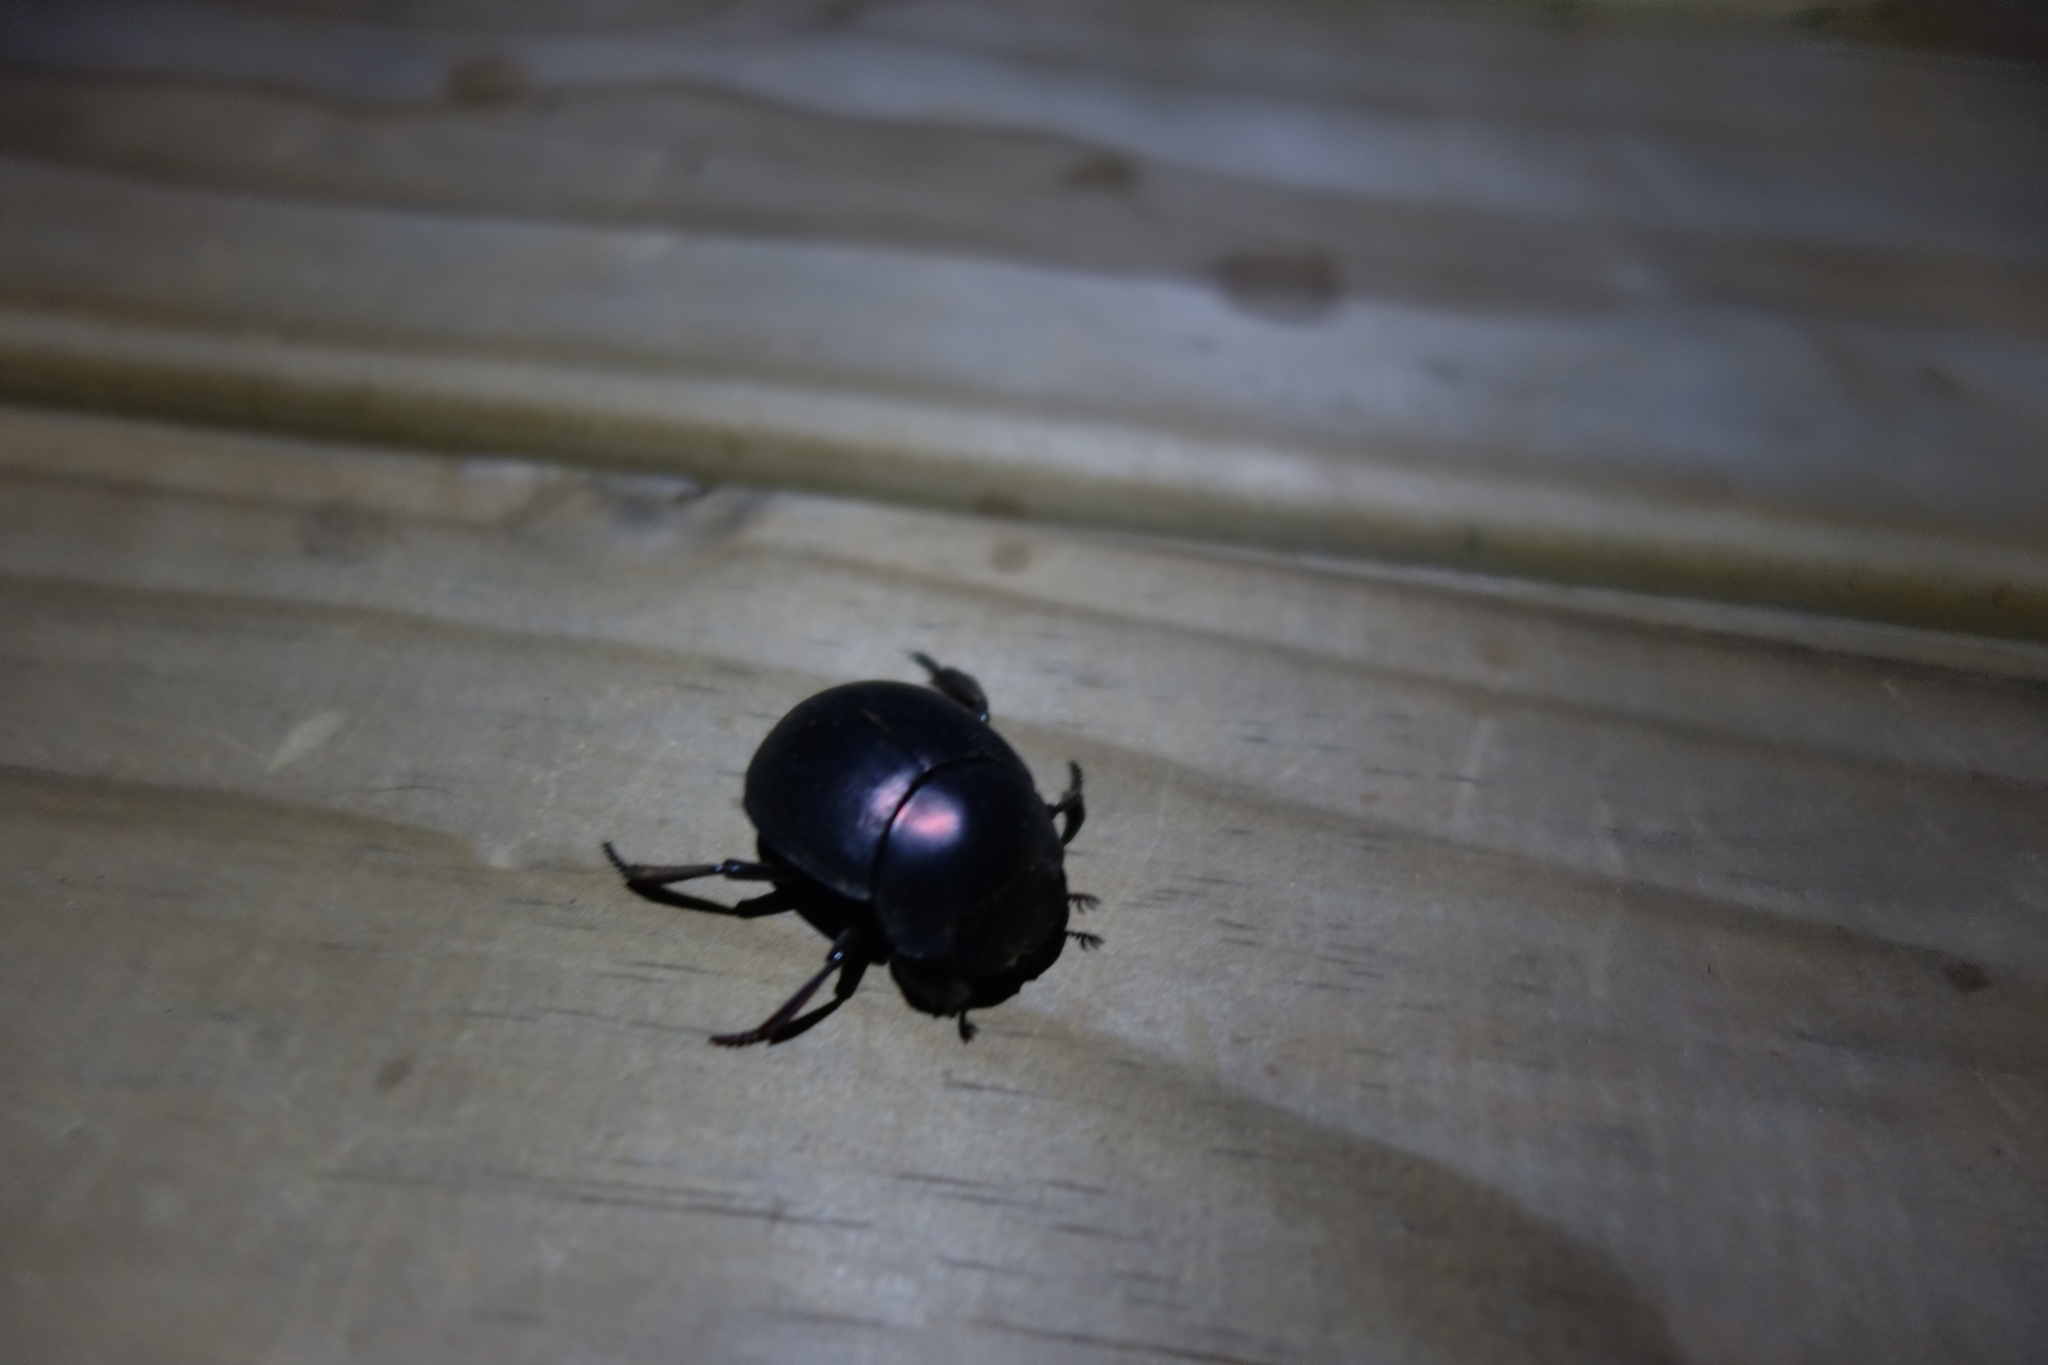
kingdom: Animalia
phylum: Arthropoda
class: Insecta
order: Coleoptera
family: Scarabaeidae
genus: Chalconotus
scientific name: Chalconotus convexus
